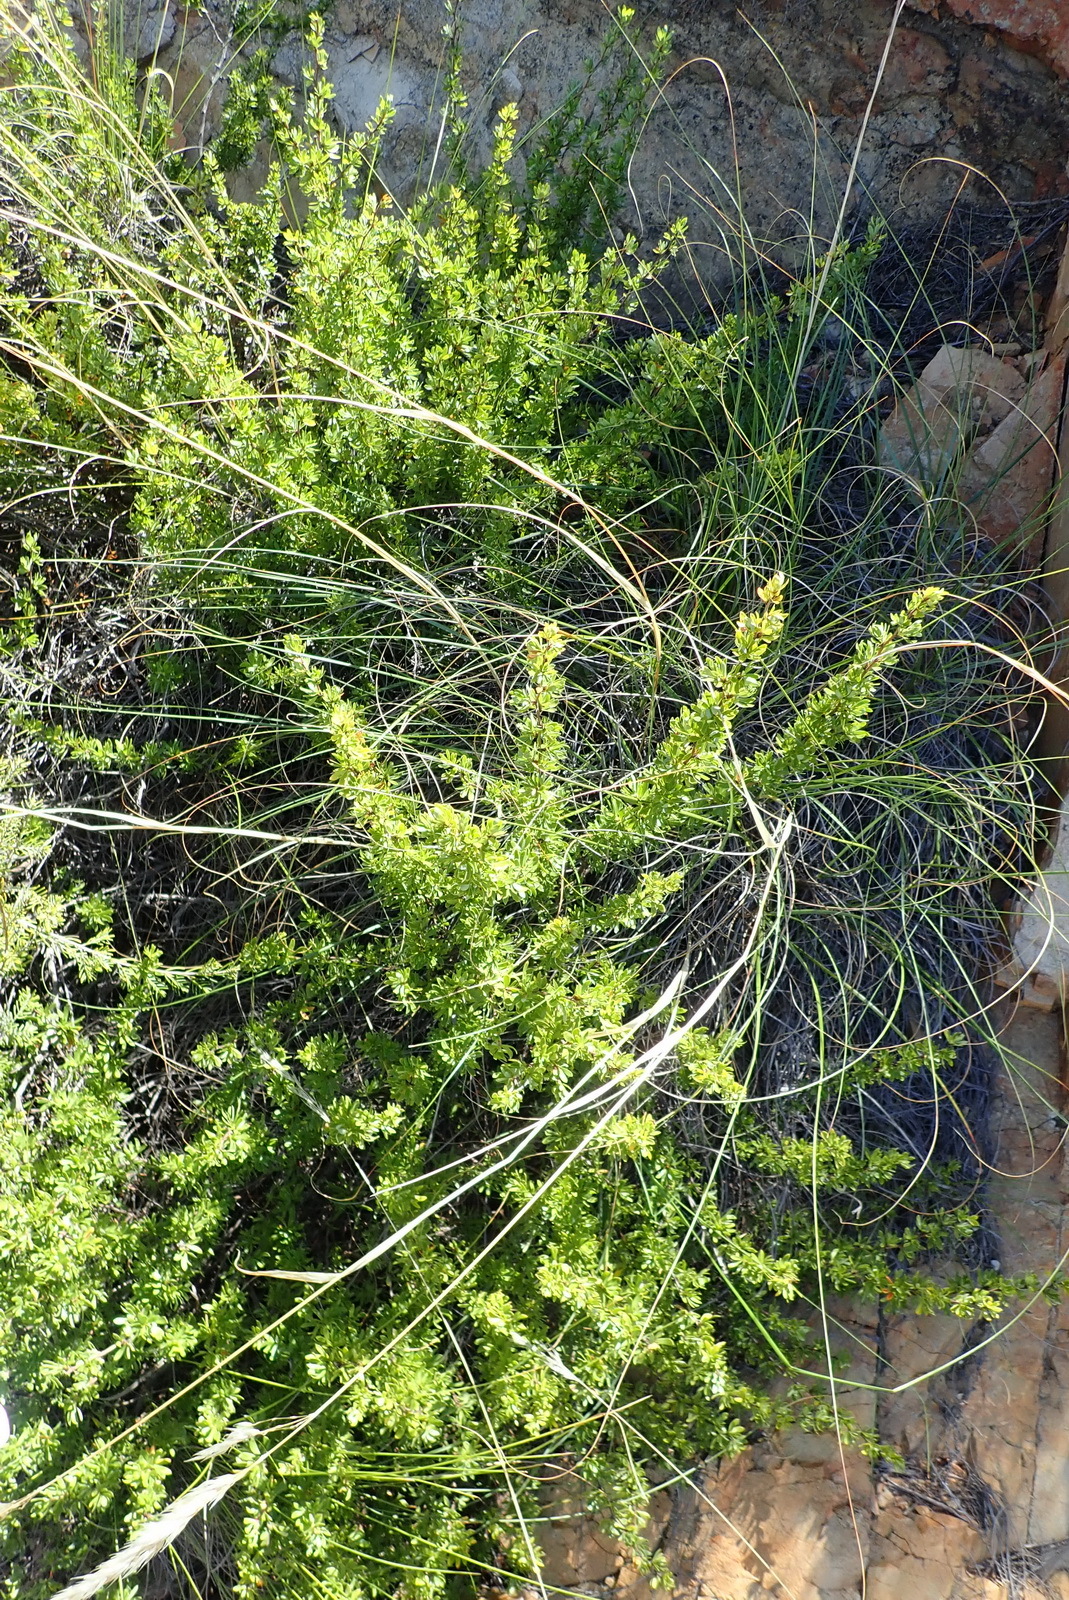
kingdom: Plantae
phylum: Tracheophyta
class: Magnoliopsida
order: Rosales
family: Rosaceae
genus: Cliffortia
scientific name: Cliffortia drepanoides
